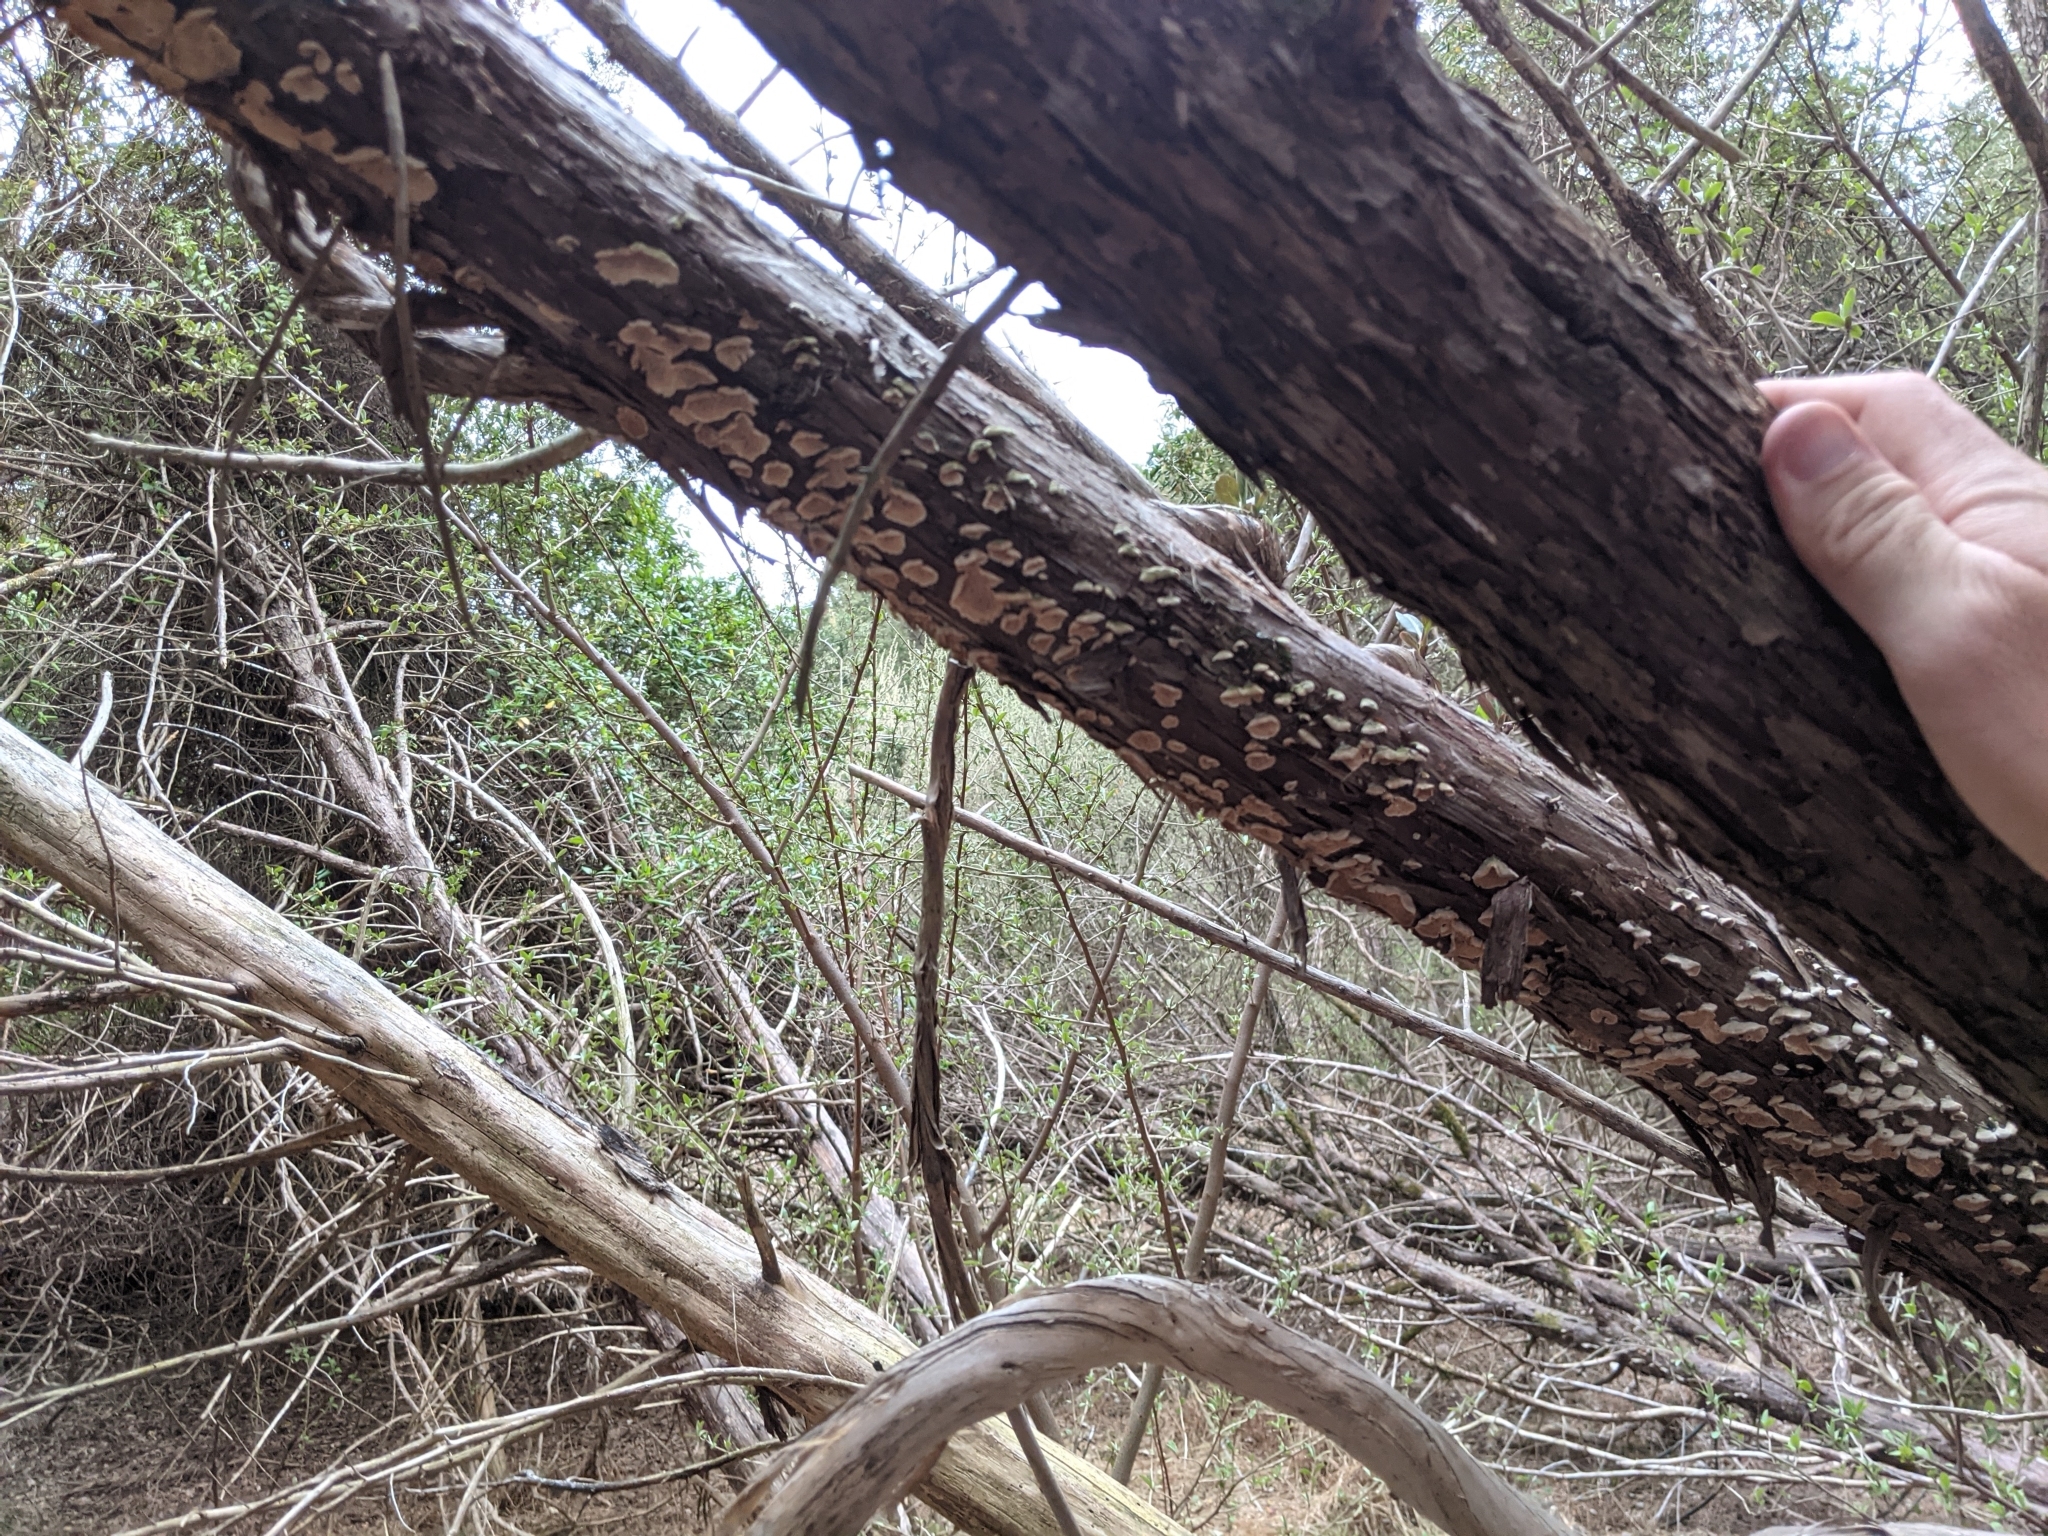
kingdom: Fungi
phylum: Basidiomycota
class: Agaricomycetes
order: Polyporales
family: Irpicaceae
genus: Irpex
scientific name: Irpex lacteus
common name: Milk-white toothed polypore
